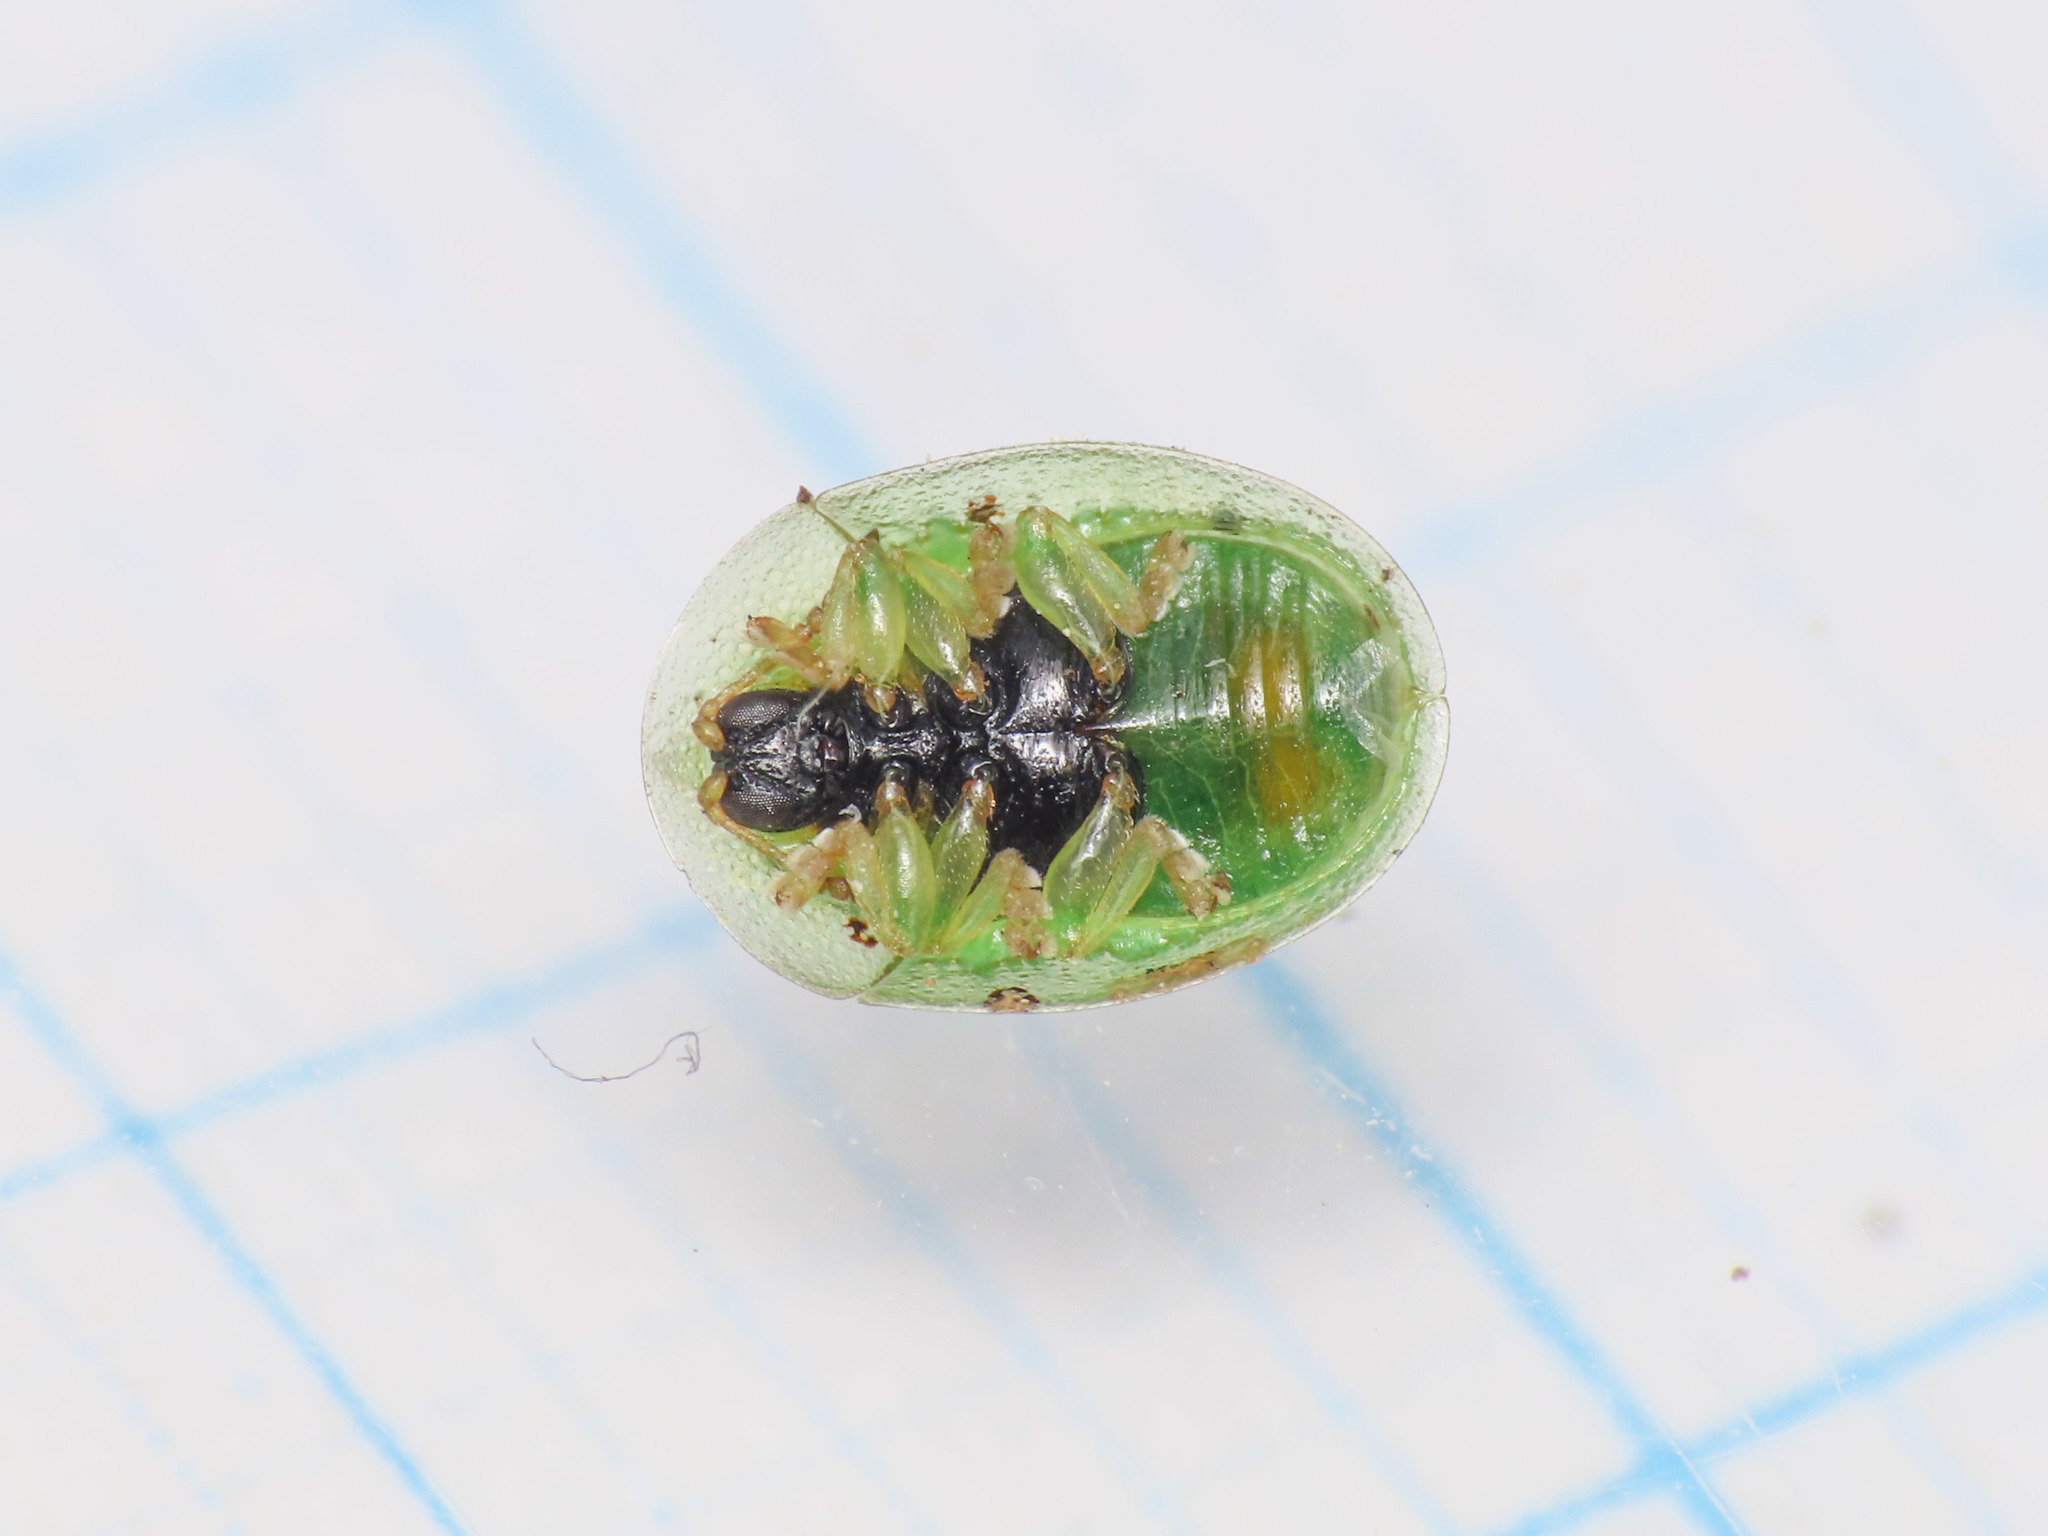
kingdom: Animalia
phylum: Arthropoda
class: Insecta
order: Coleoptera
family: Chrysomelidae
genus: Cassida
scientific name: Cassida margaritacea
